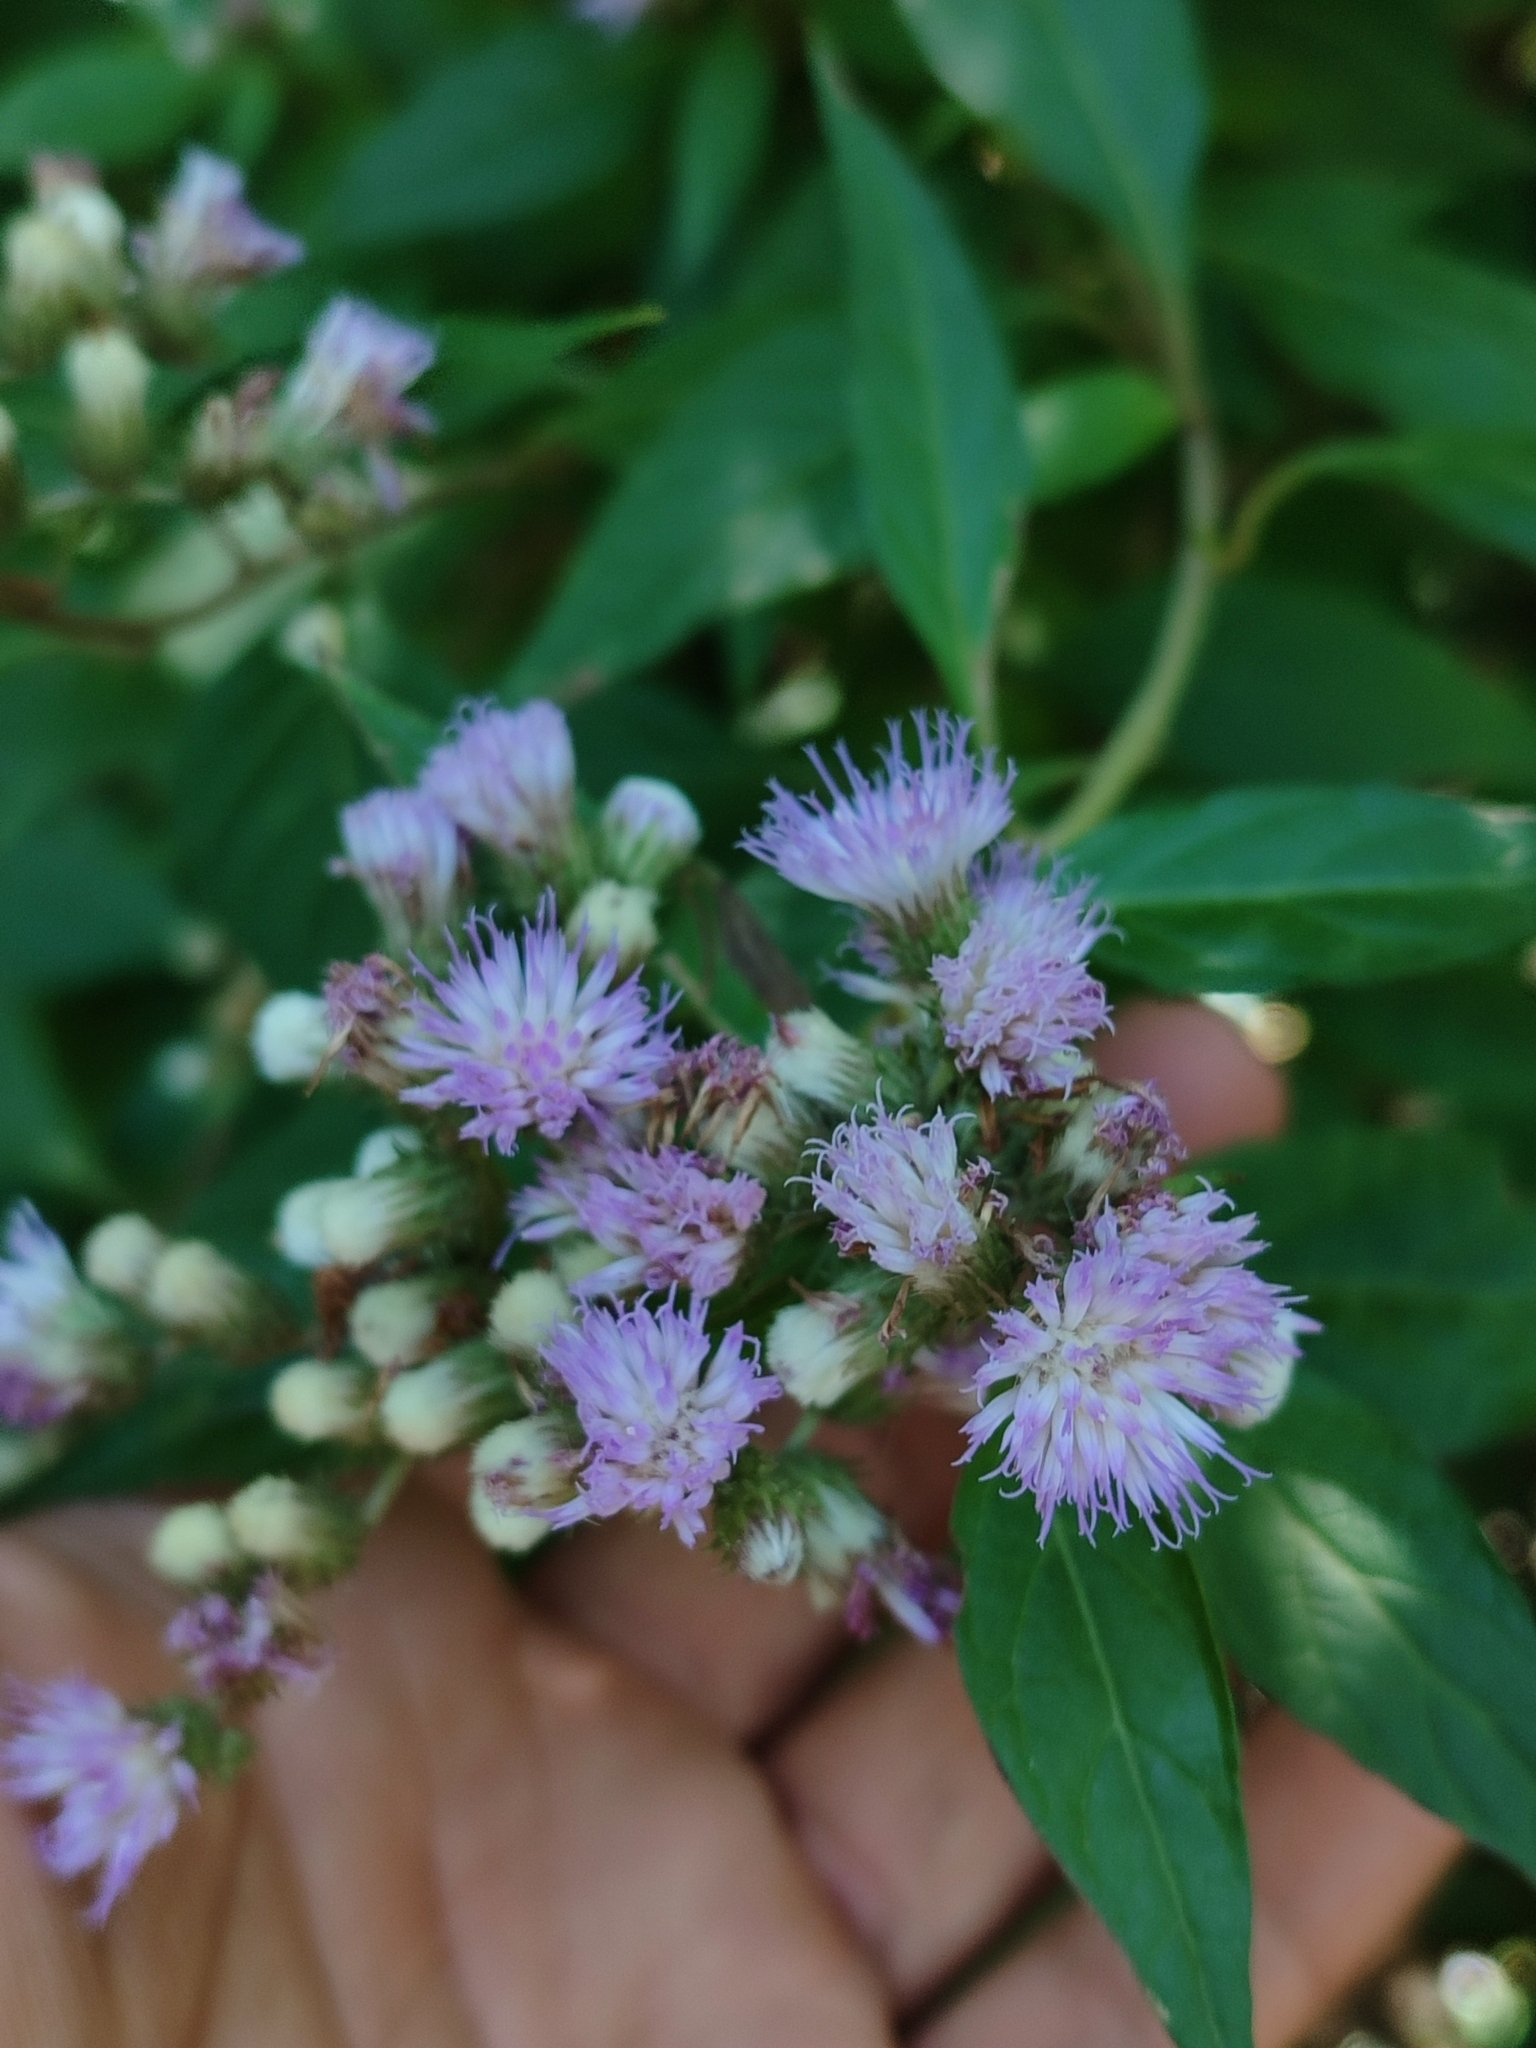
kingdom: Plantae
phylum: Tracheophyta
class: Magnoliopsida
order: Asterales
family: Asteraceae
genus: Cyrtocymura
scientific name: Cyrtocymura scorpioides
